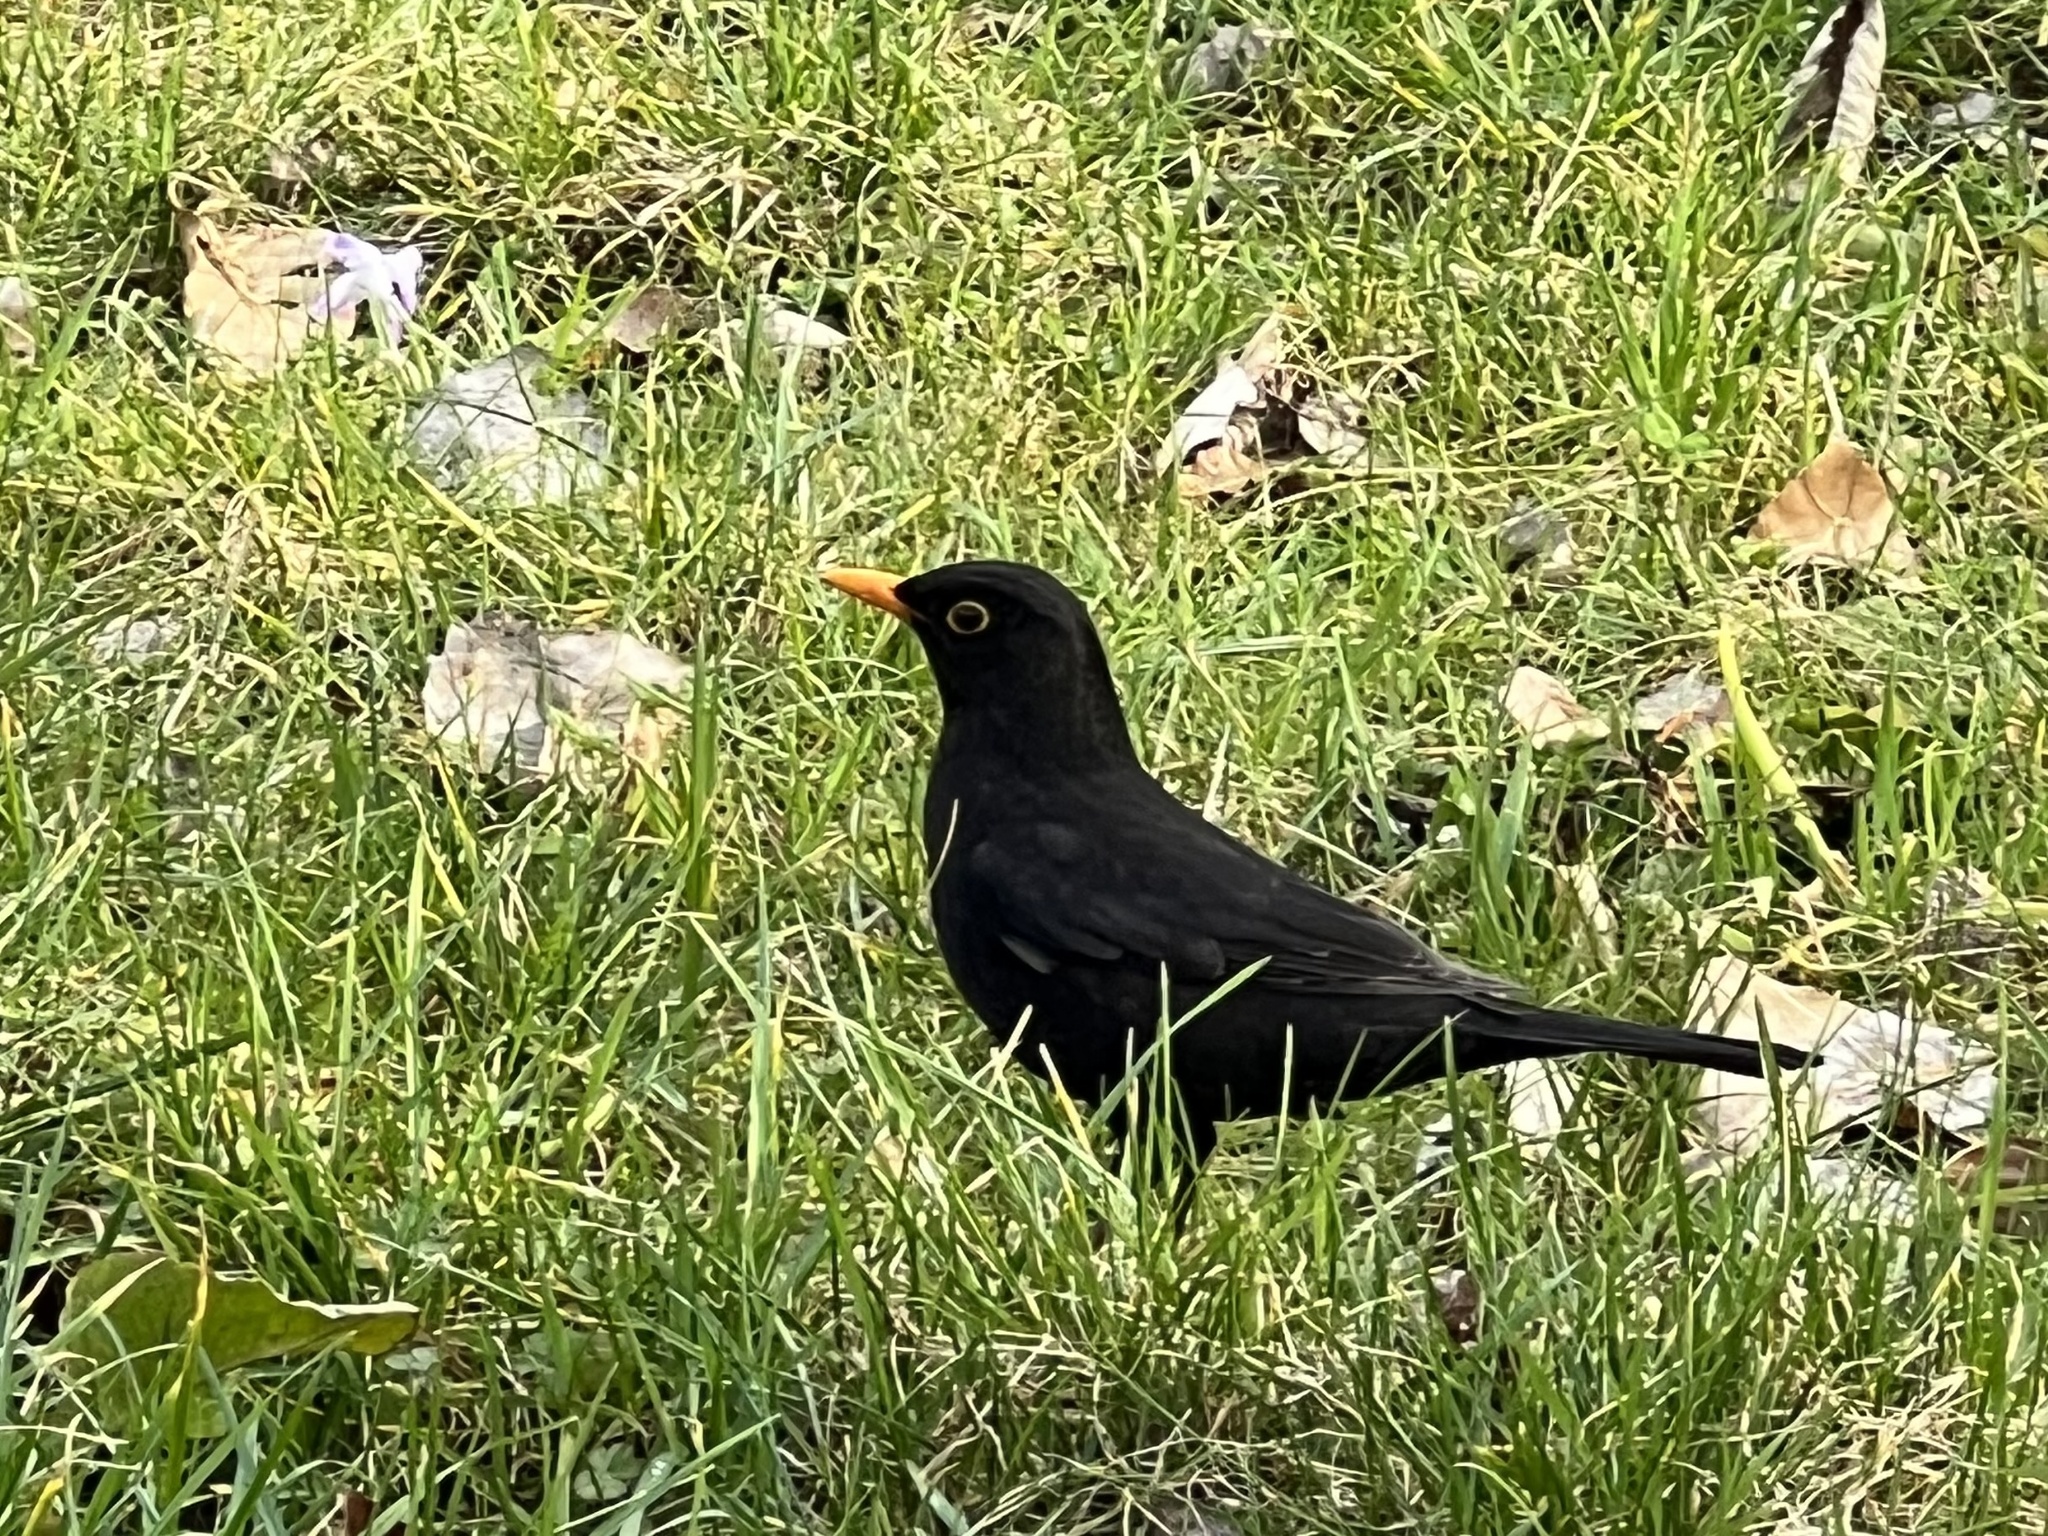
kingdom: Animalia
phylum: Chordata
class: Aves
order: Passeriformes
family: Turdidae
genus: Turdus
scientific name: Turdus merula
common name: Common blackbird
